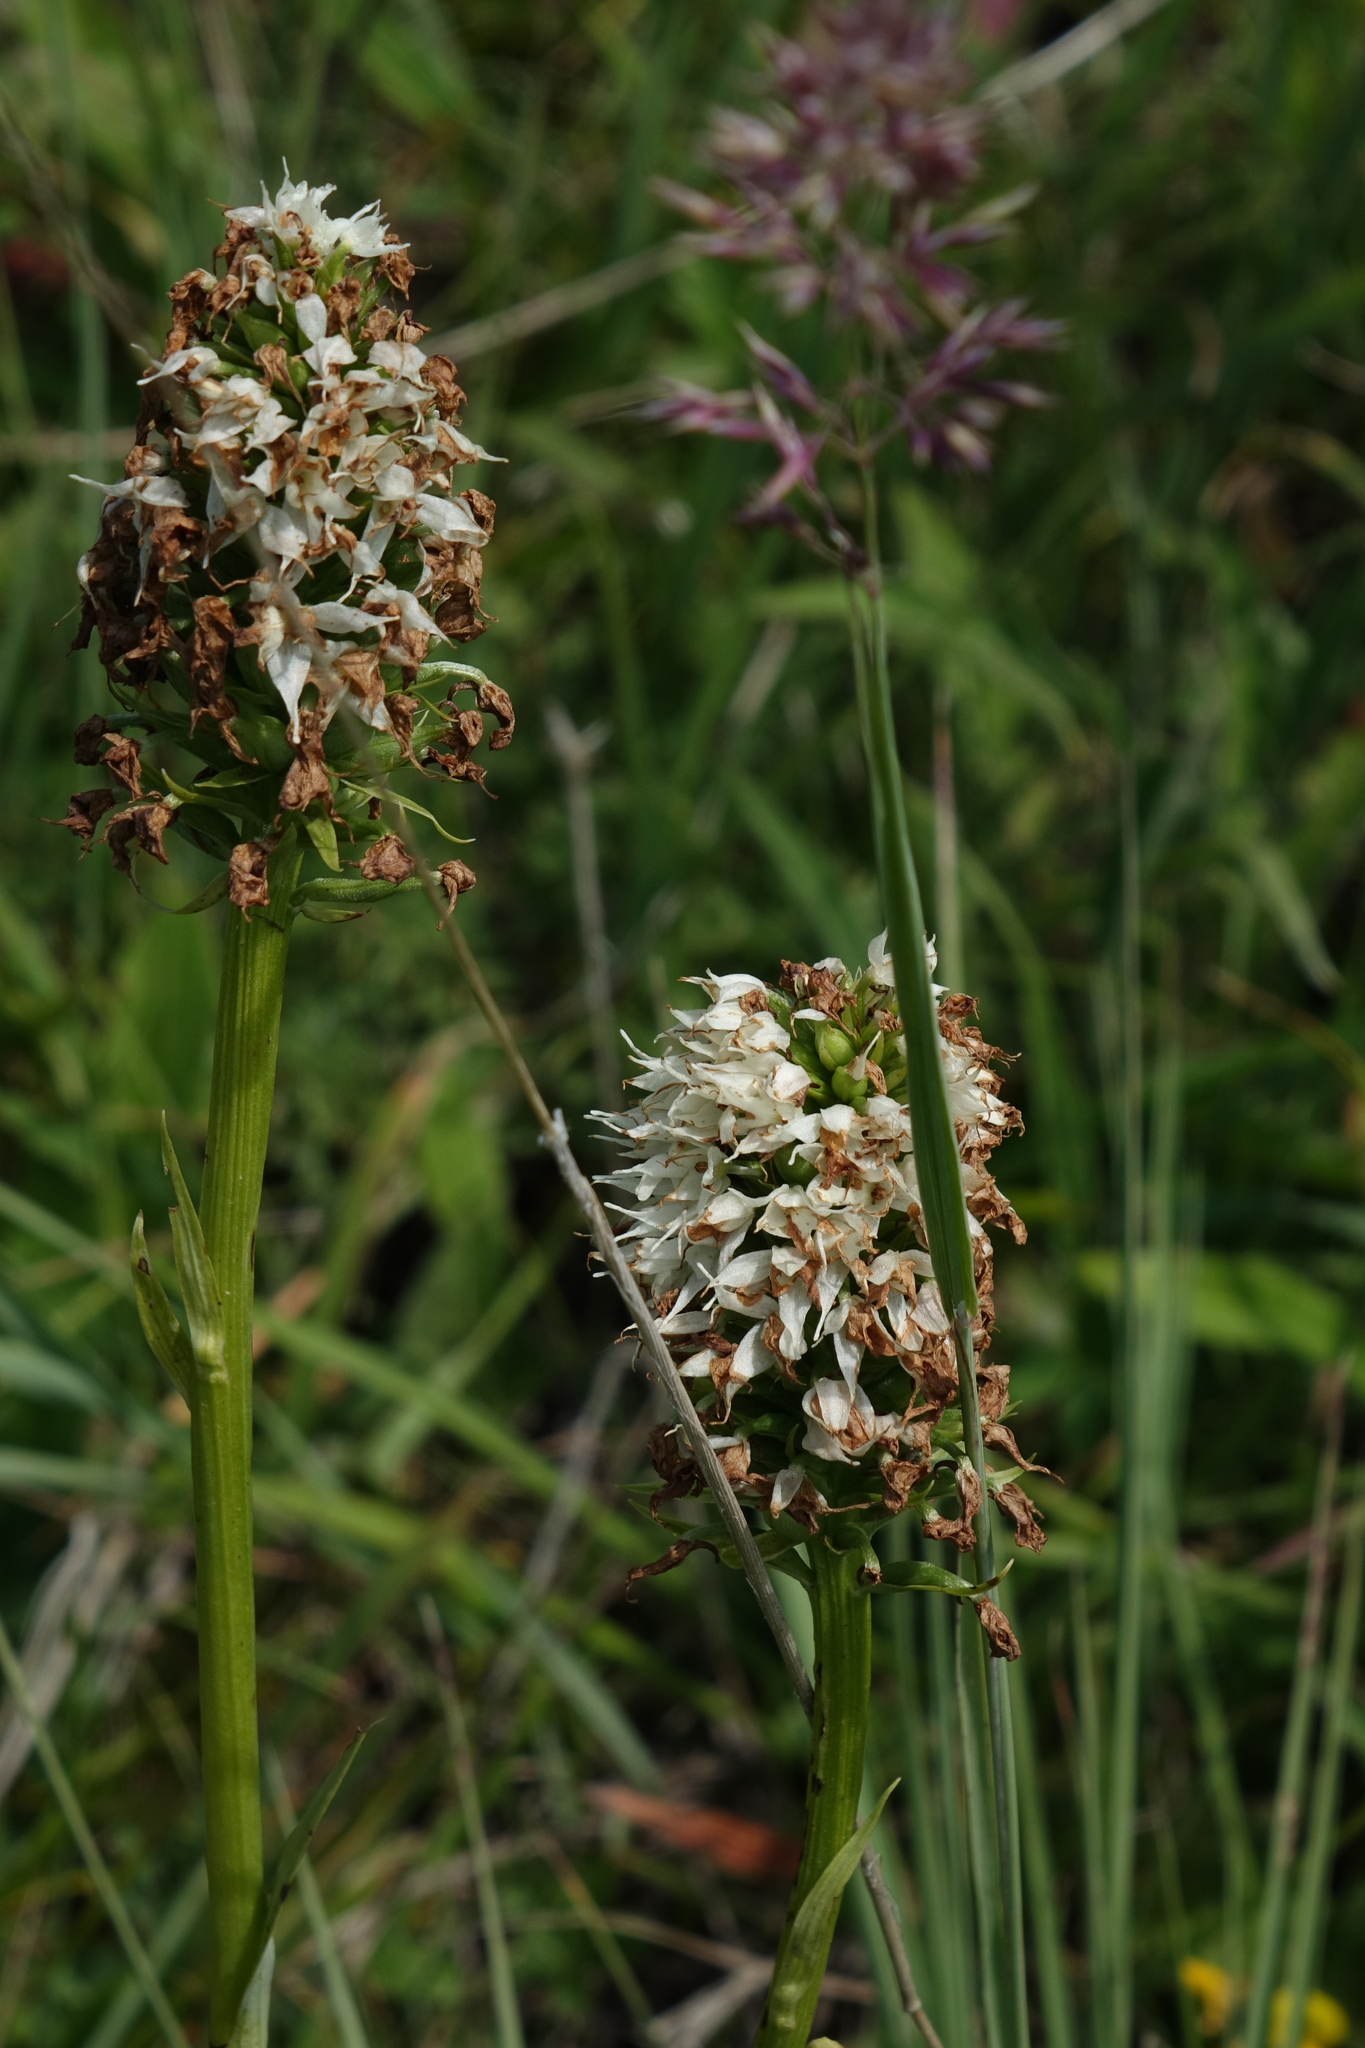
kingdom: Plantae
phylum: Tracheophyta
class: Liliopsida
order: Asparagales
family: Orchidaceae
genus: Traunsteinera
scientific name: Traunsteinera sphaerica
